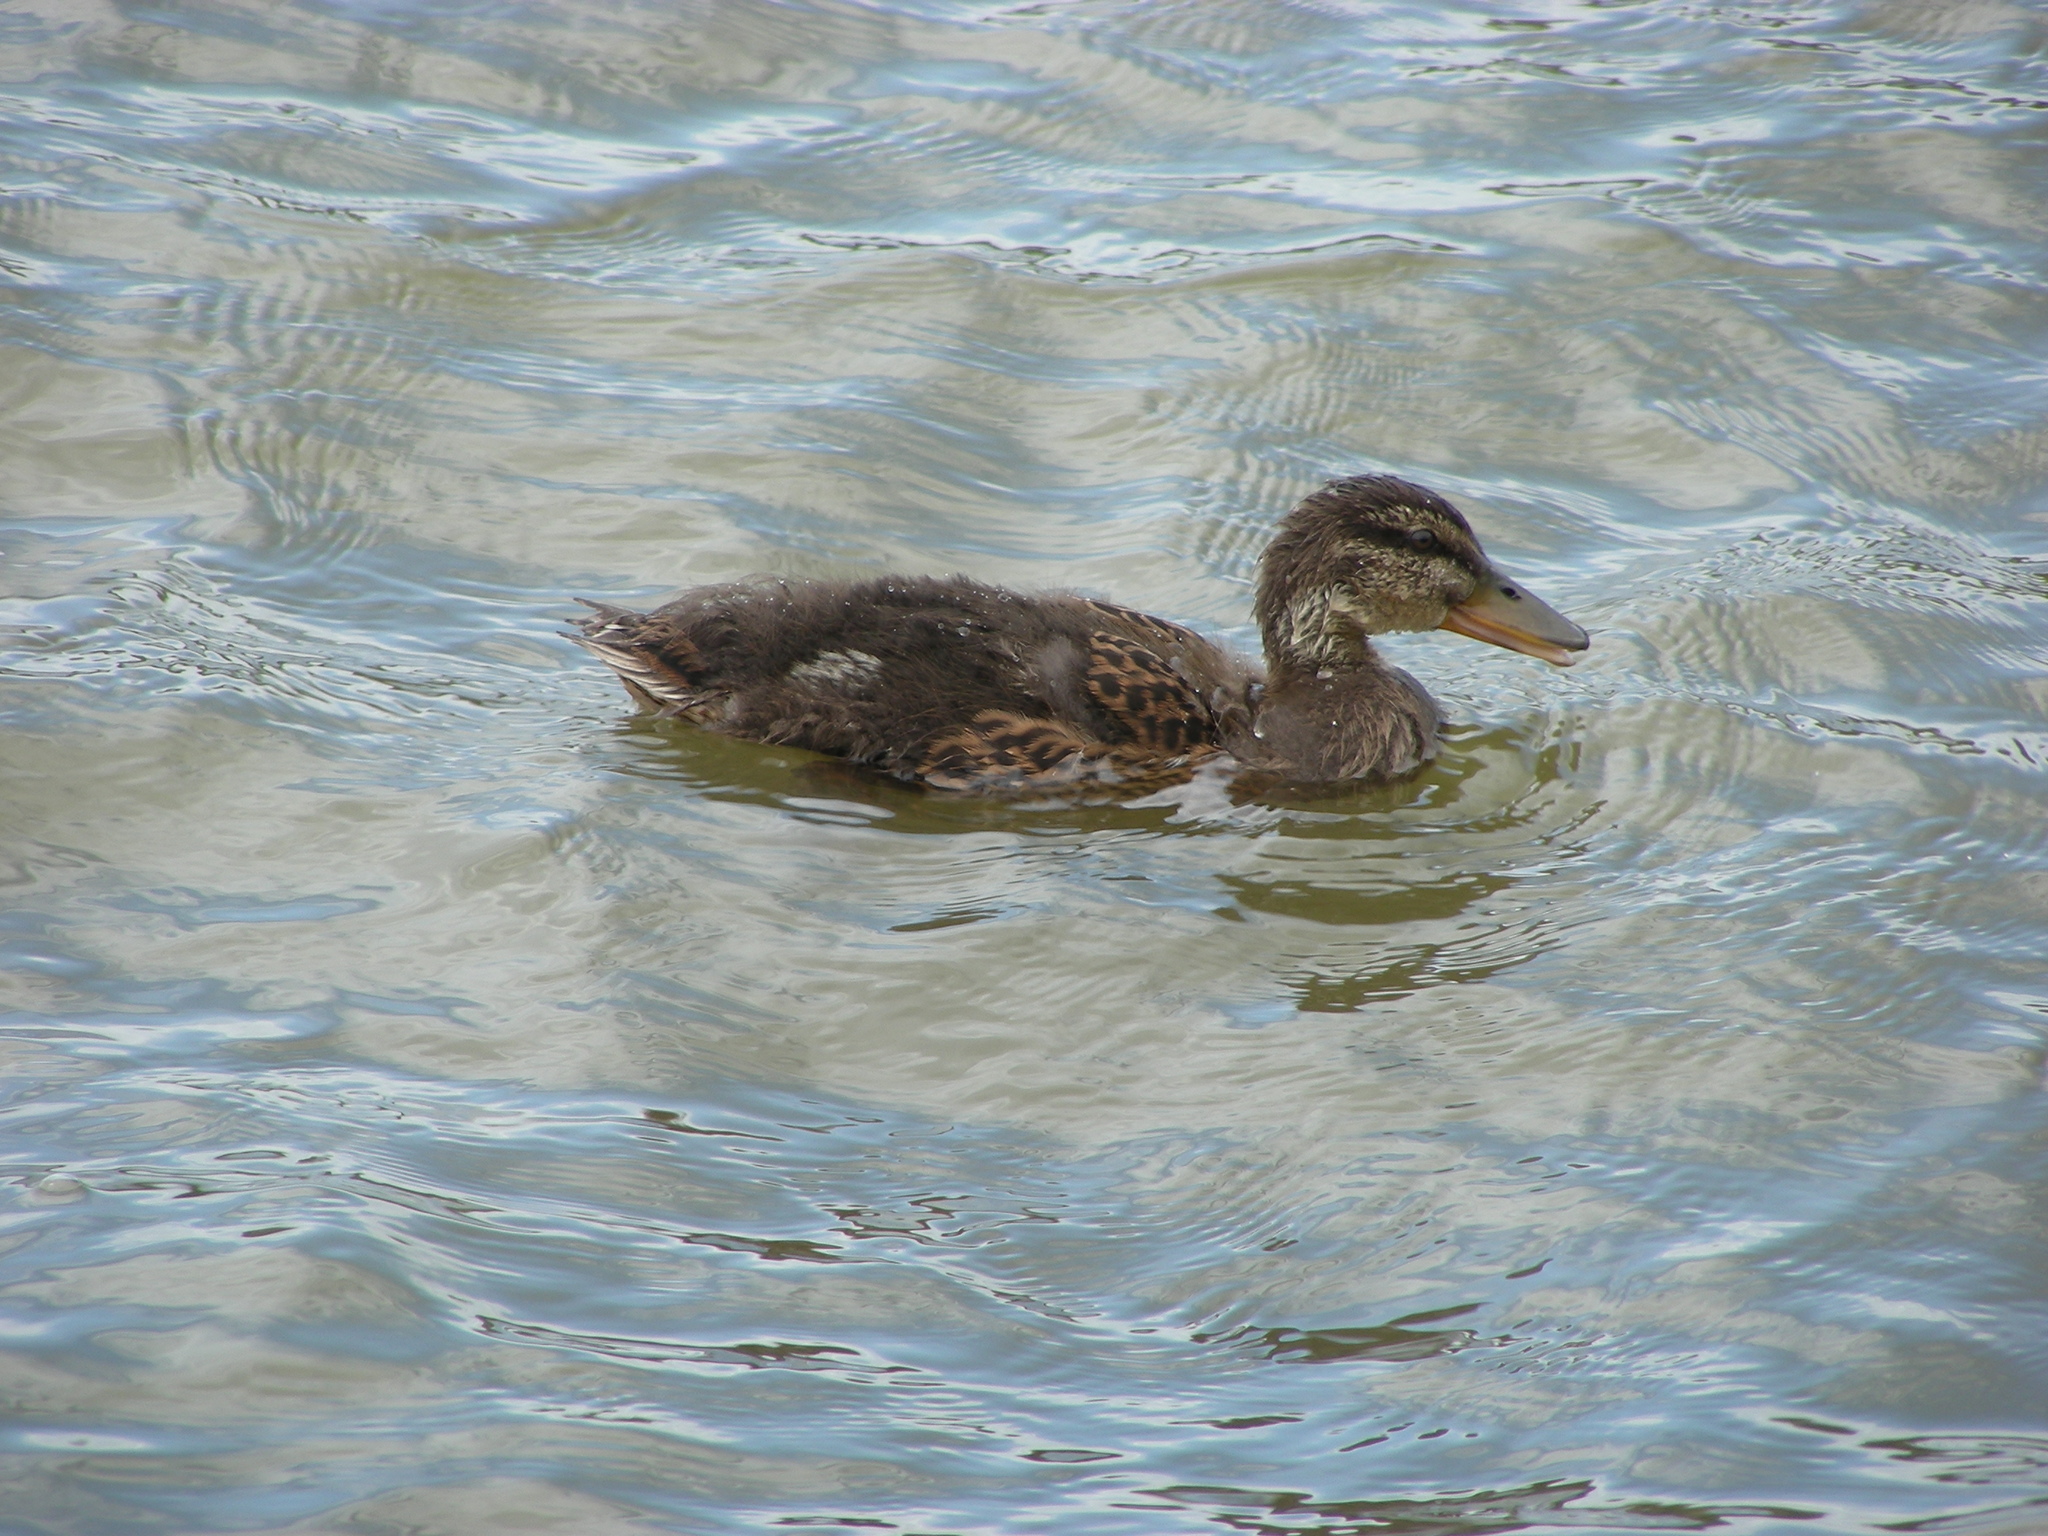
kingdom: Animalia
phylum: Chordata
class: Aves
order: Anseriformes
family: Anatidae
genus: Anas
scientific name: Anas platyrhynchos
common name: Mallard
